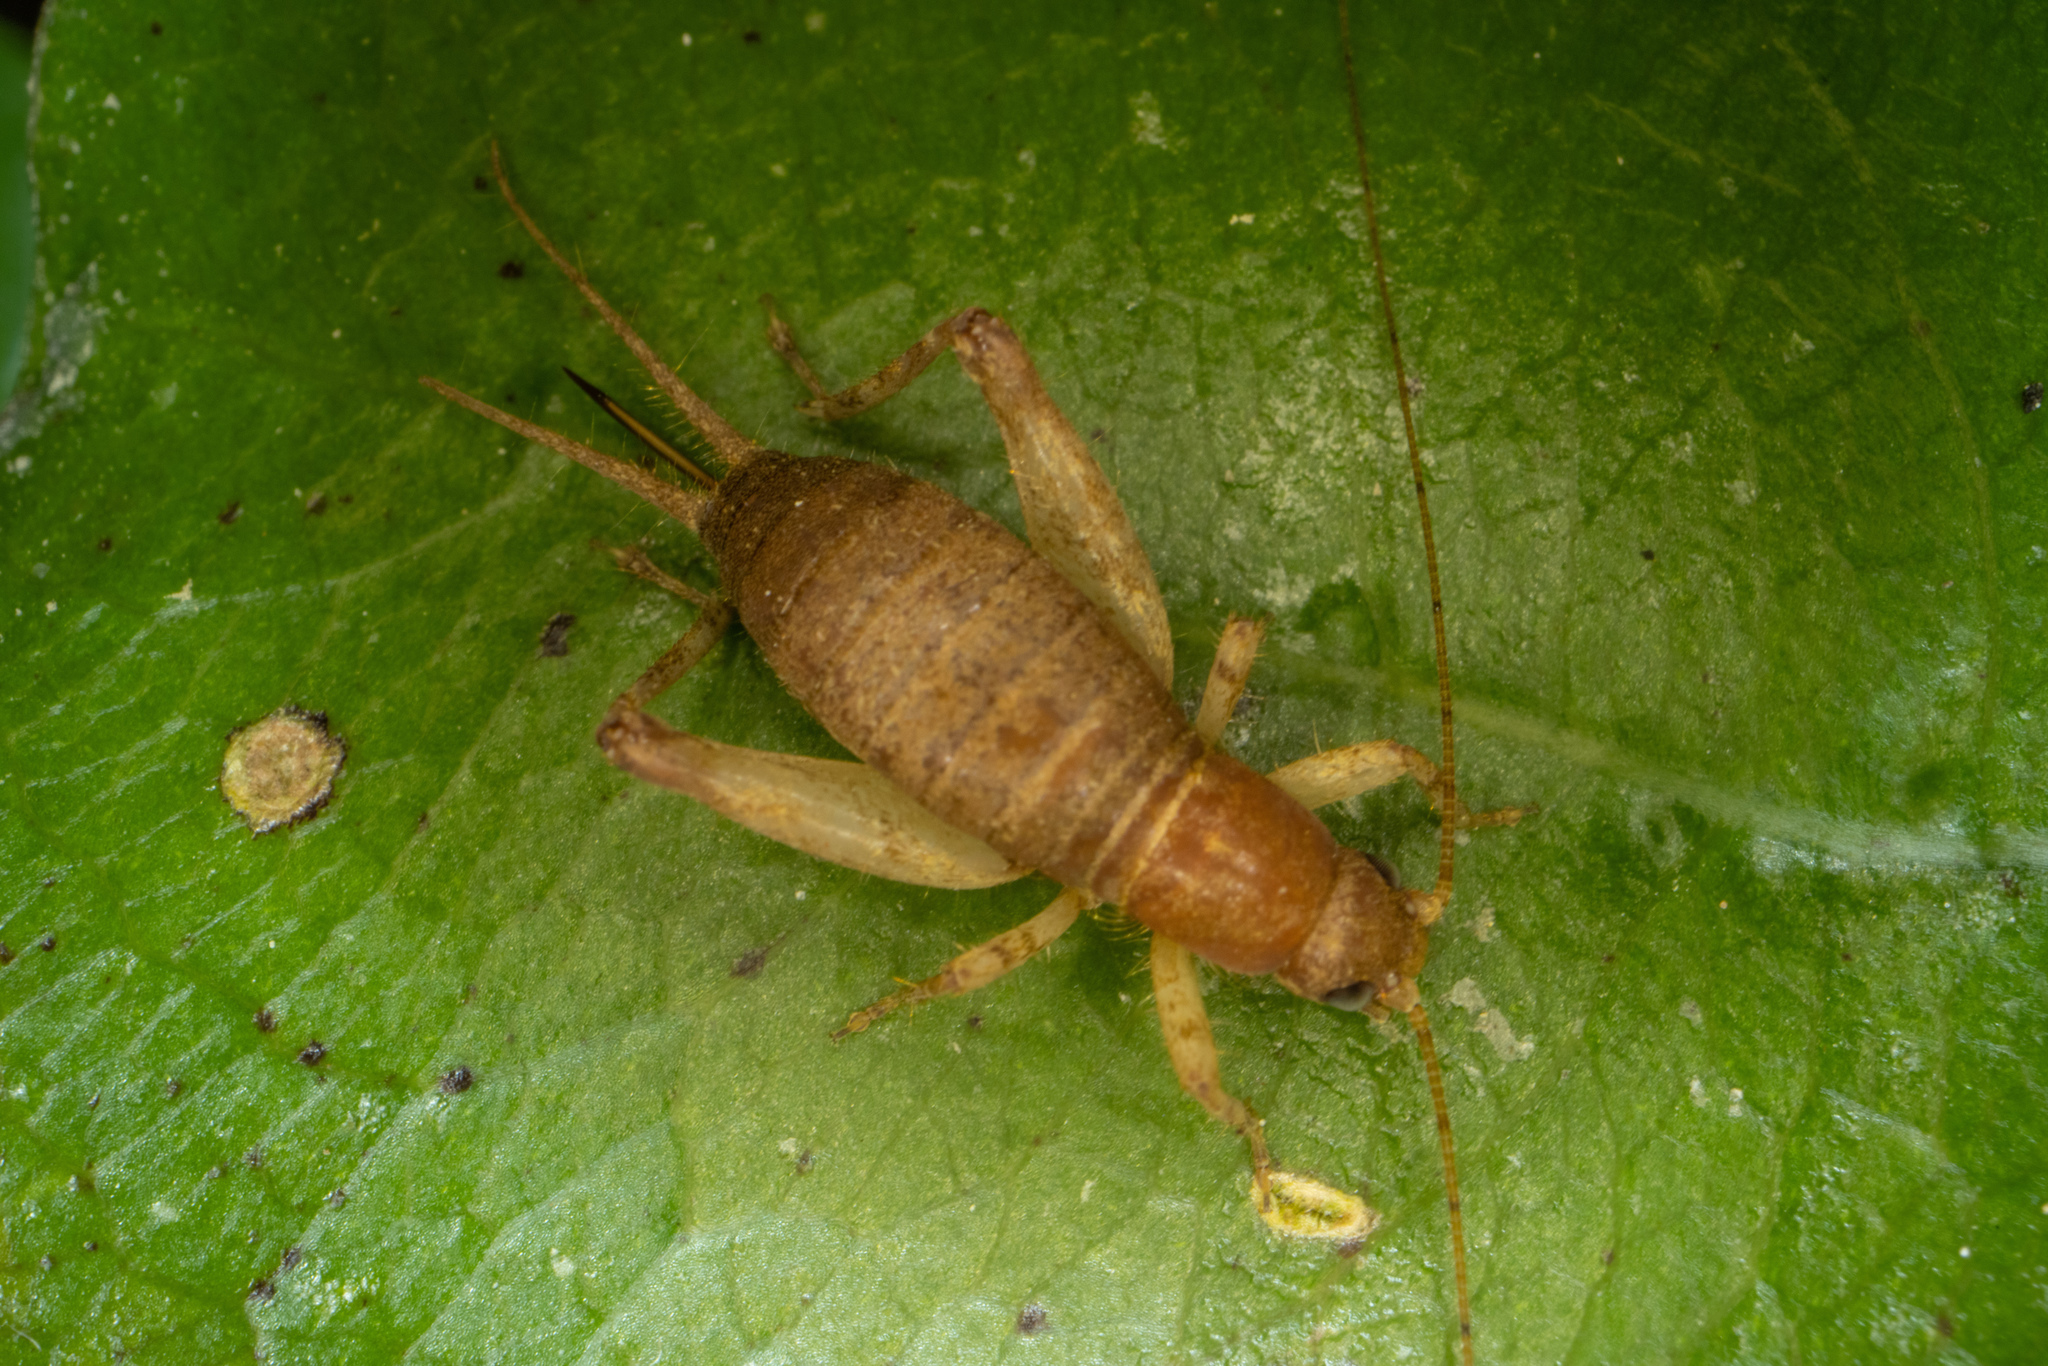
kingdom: Animalia
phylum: Arthropoda
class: Insecta
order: Orthoptera
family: Mogoplistidae
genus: Ornebius
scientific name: Ornebius aperta
